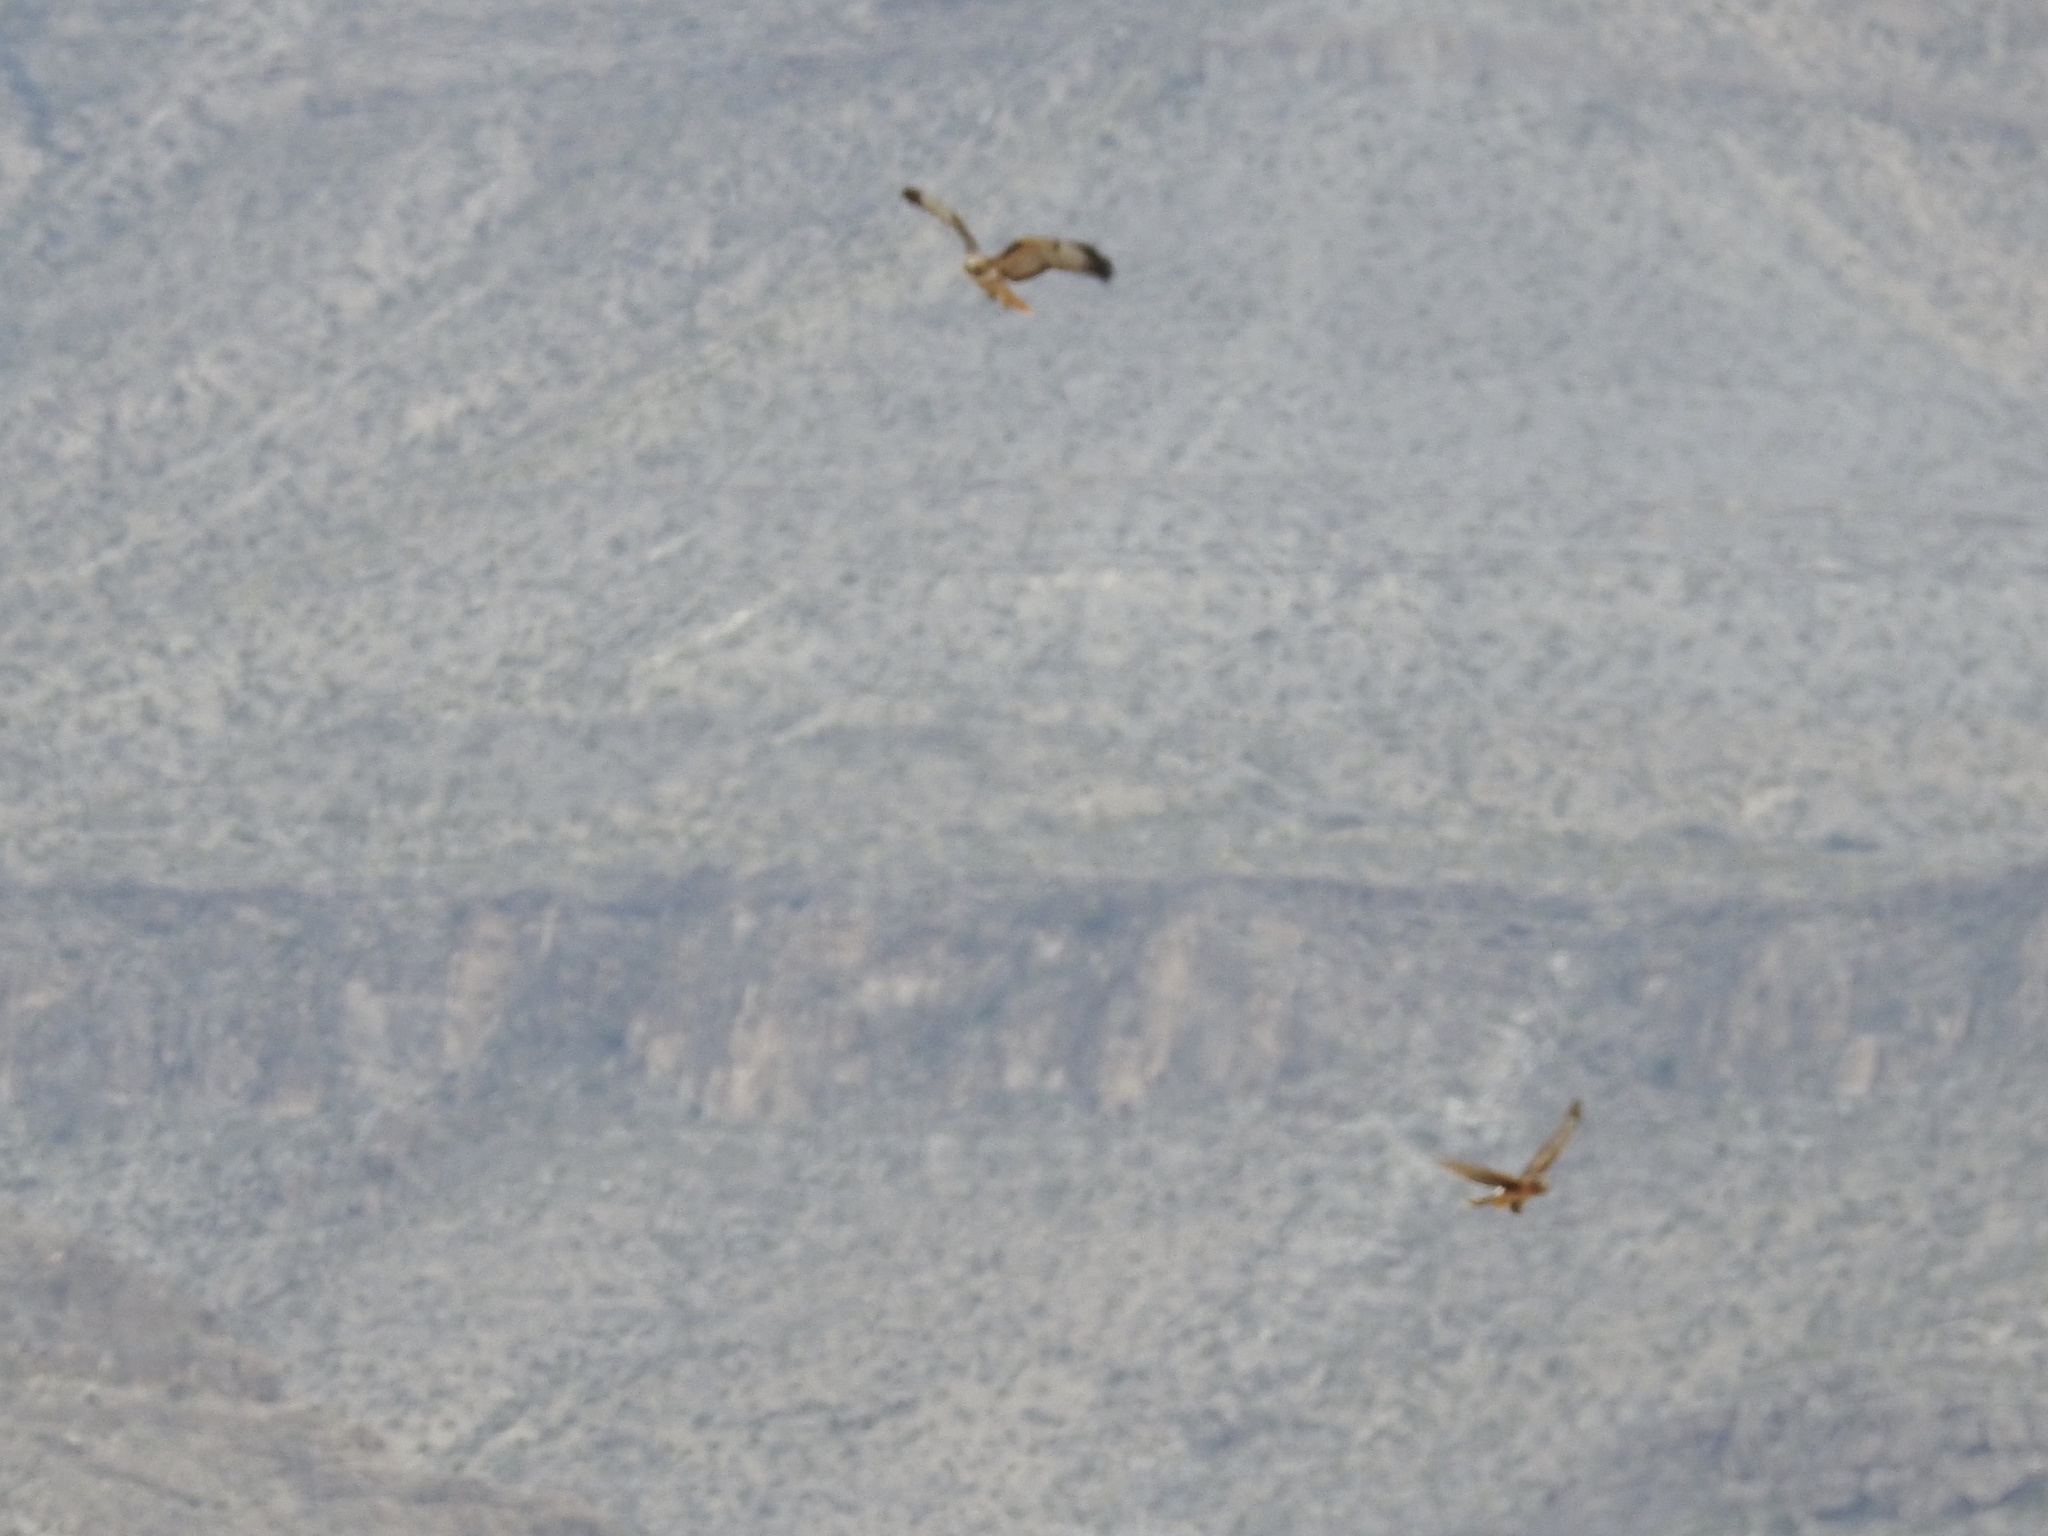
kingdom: Animalia
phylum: Chordata
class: Aves
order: Accipitriformes
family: Accipitridae
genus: Buteo
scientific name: Buteo jamaicensis
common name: Red-tailed hawk
